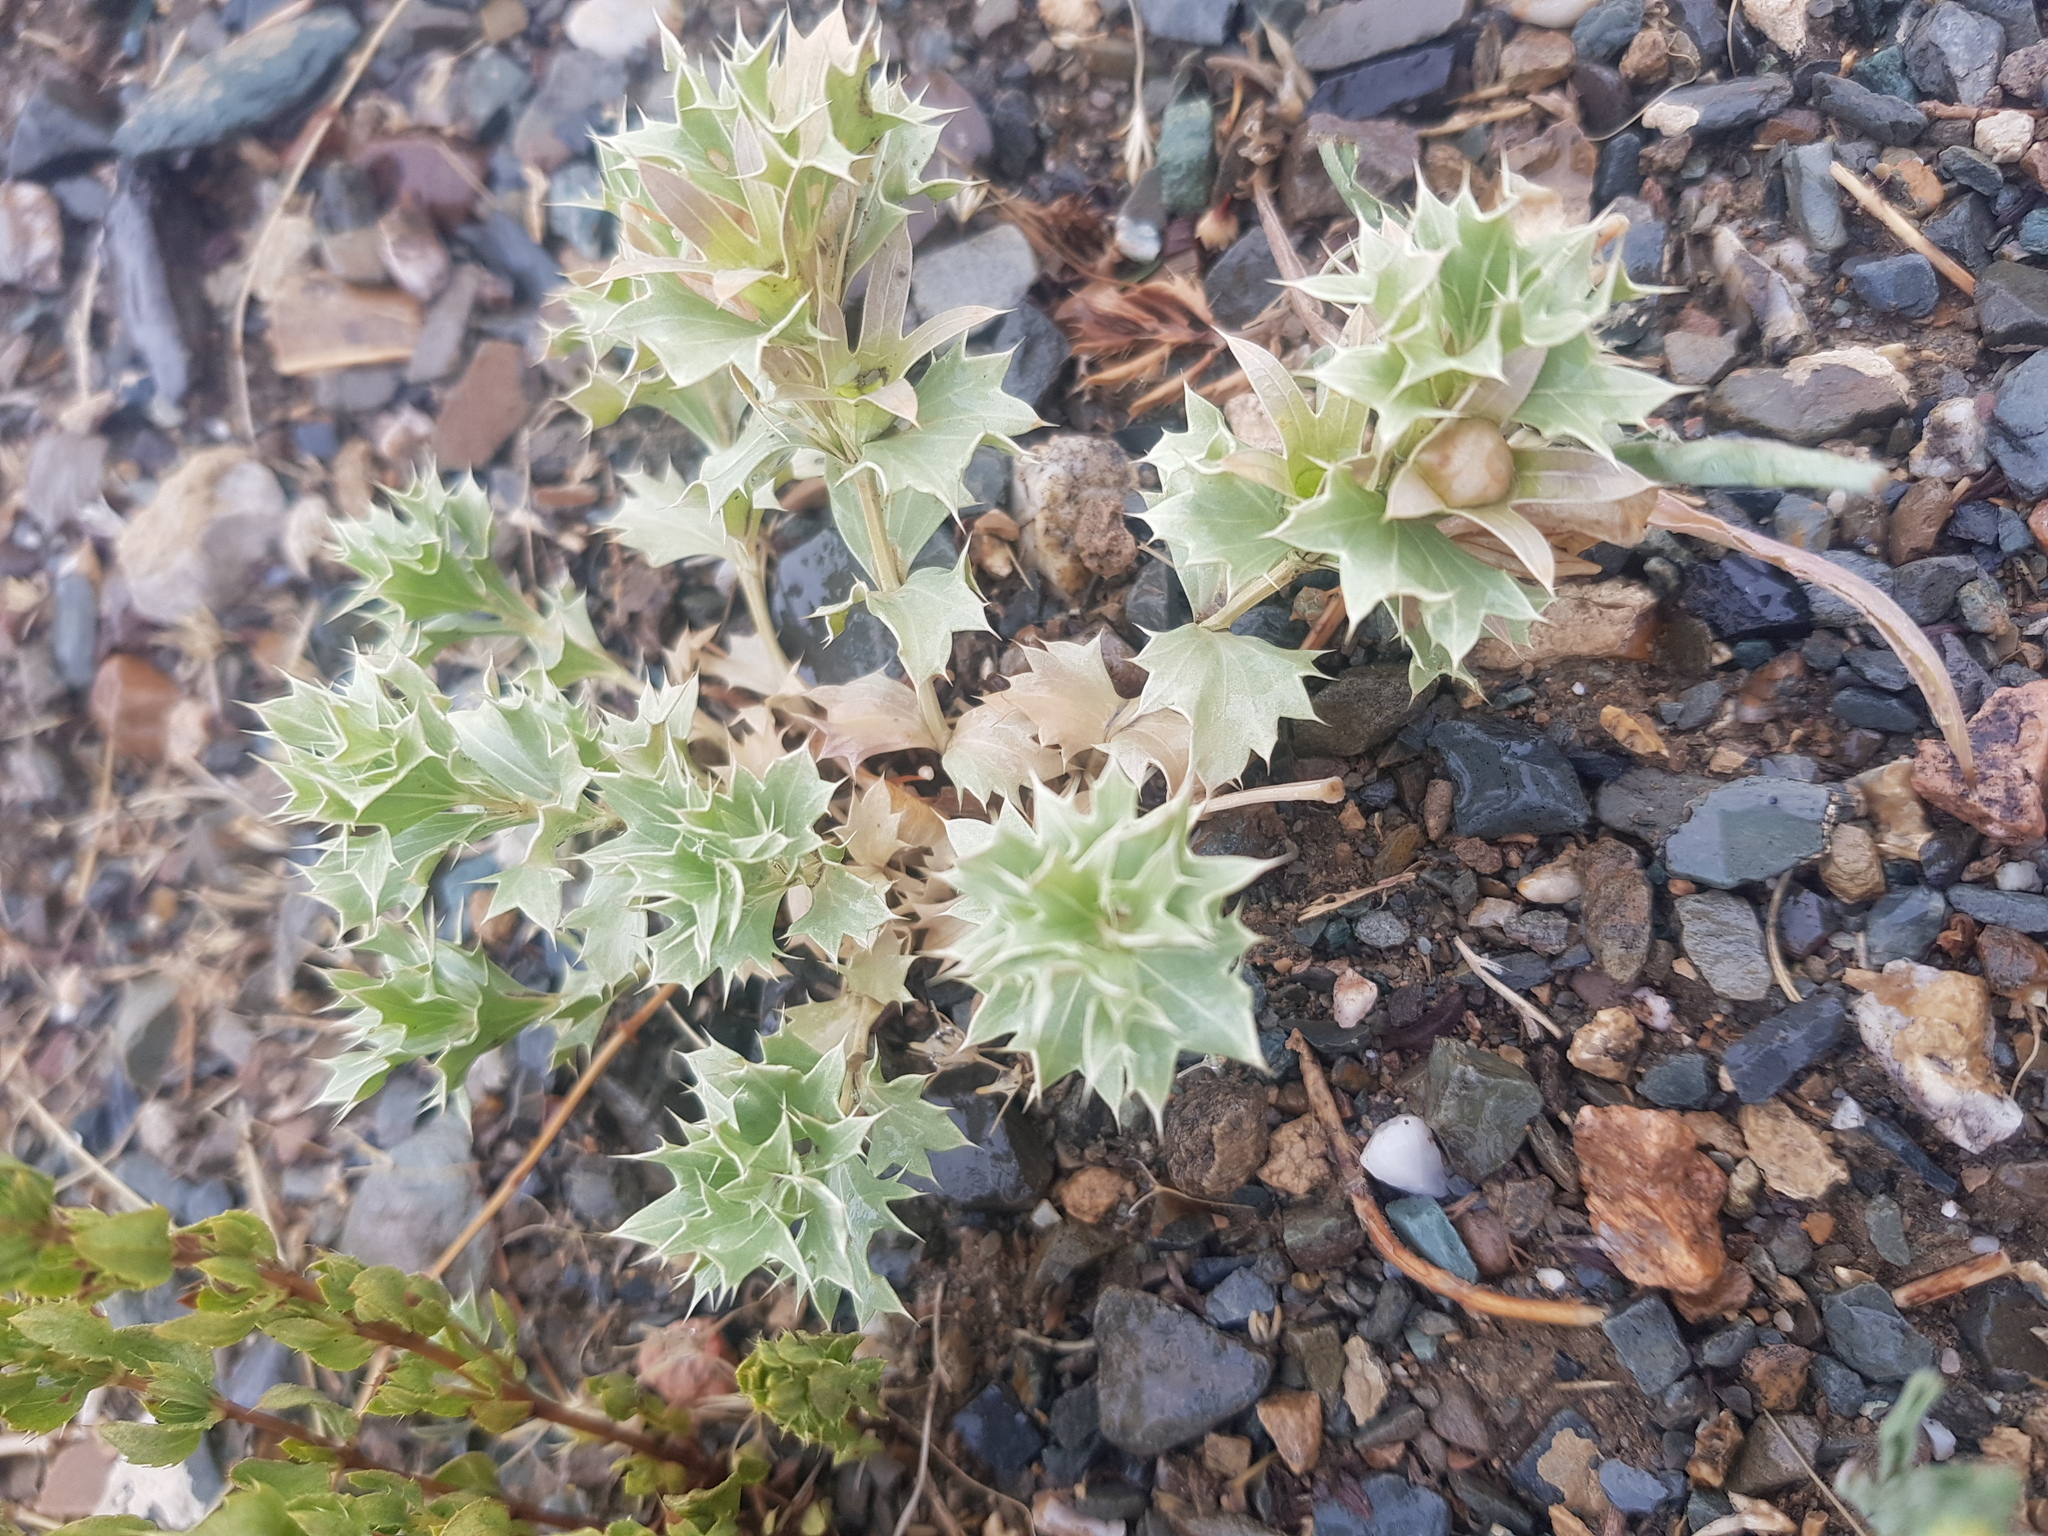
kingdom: Plantae
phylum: Tracheophyta
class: Magnoliopsida
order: Lamiales
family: Lamiaceae
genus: Lagochilus
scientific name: Lagochilus ilicifolius
